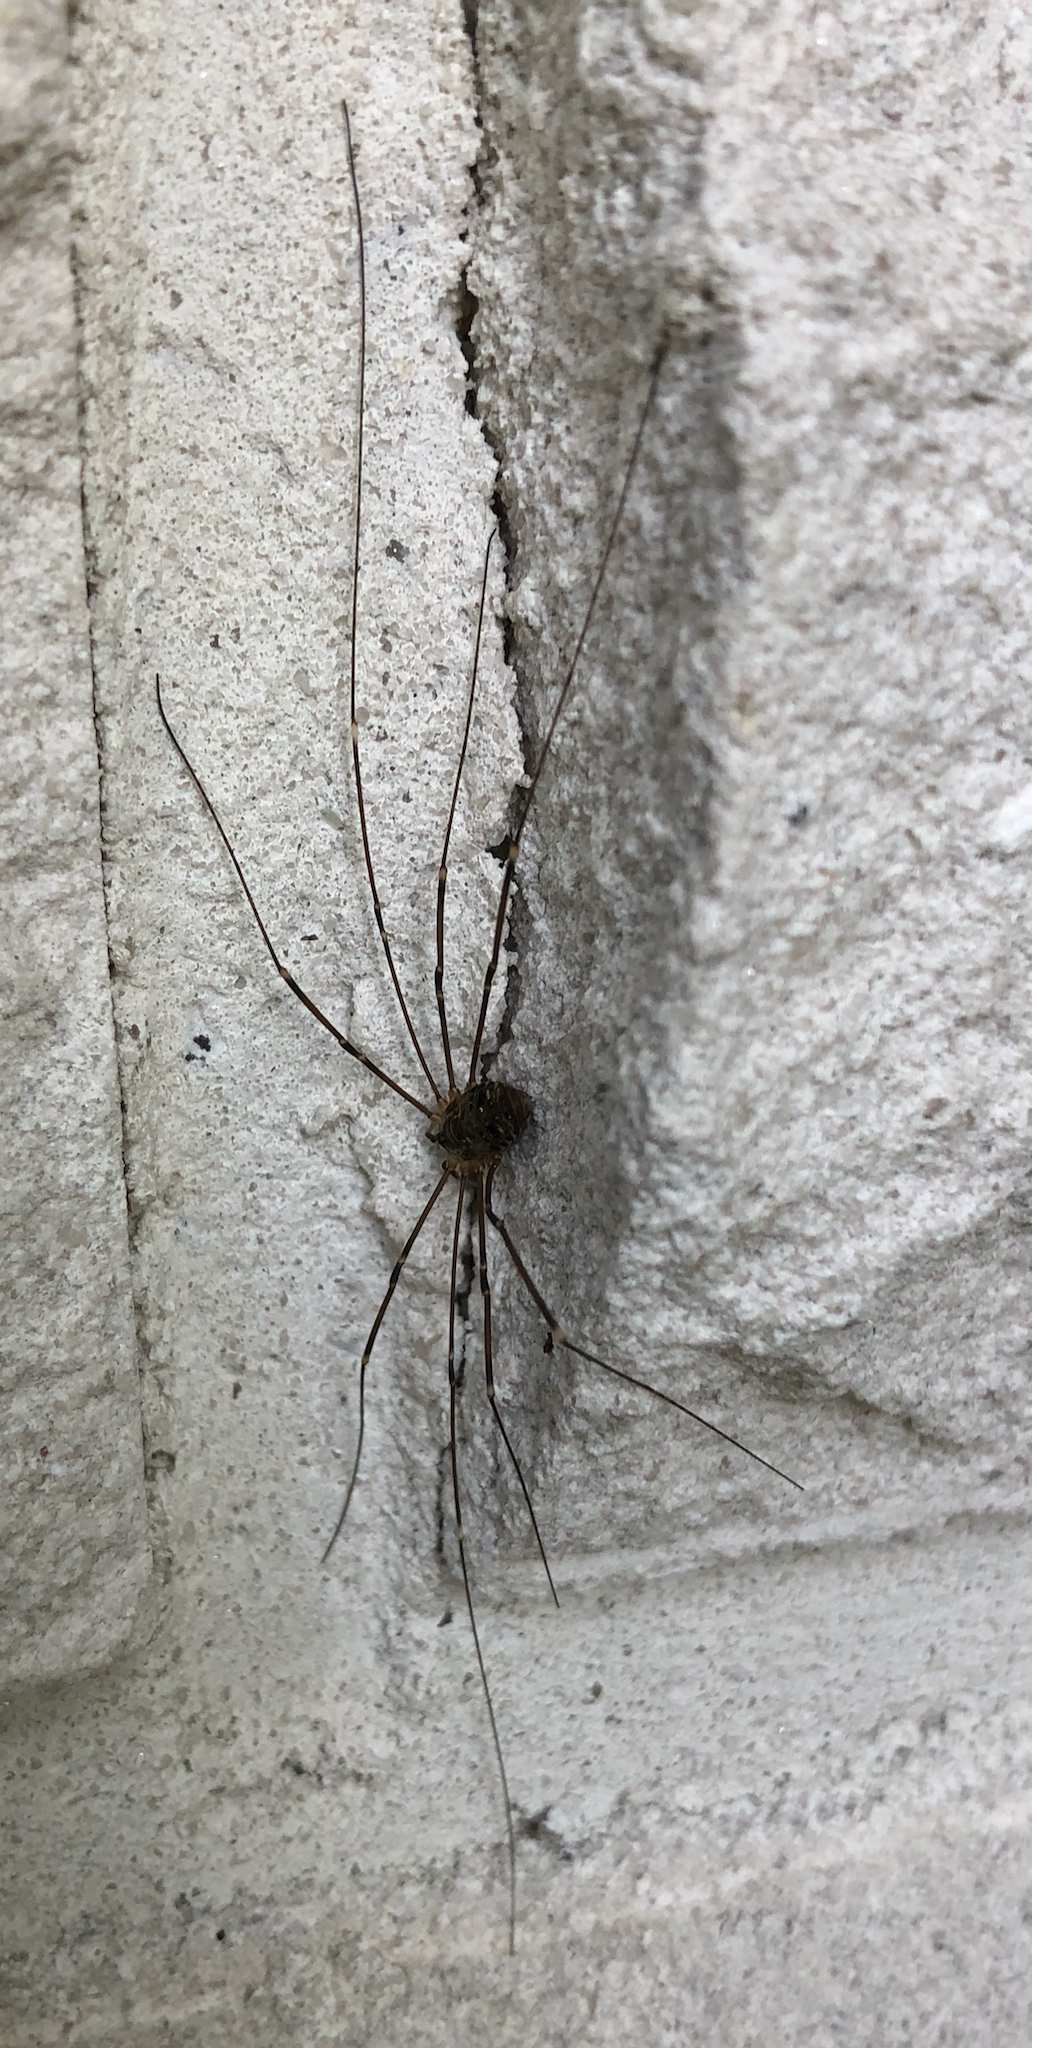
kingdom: Animalia
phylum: Arthropoda
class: Arachnida
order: Opiliones
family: Sclerosomatidae
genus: Leiobunum
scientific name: Leiobunum gracile
